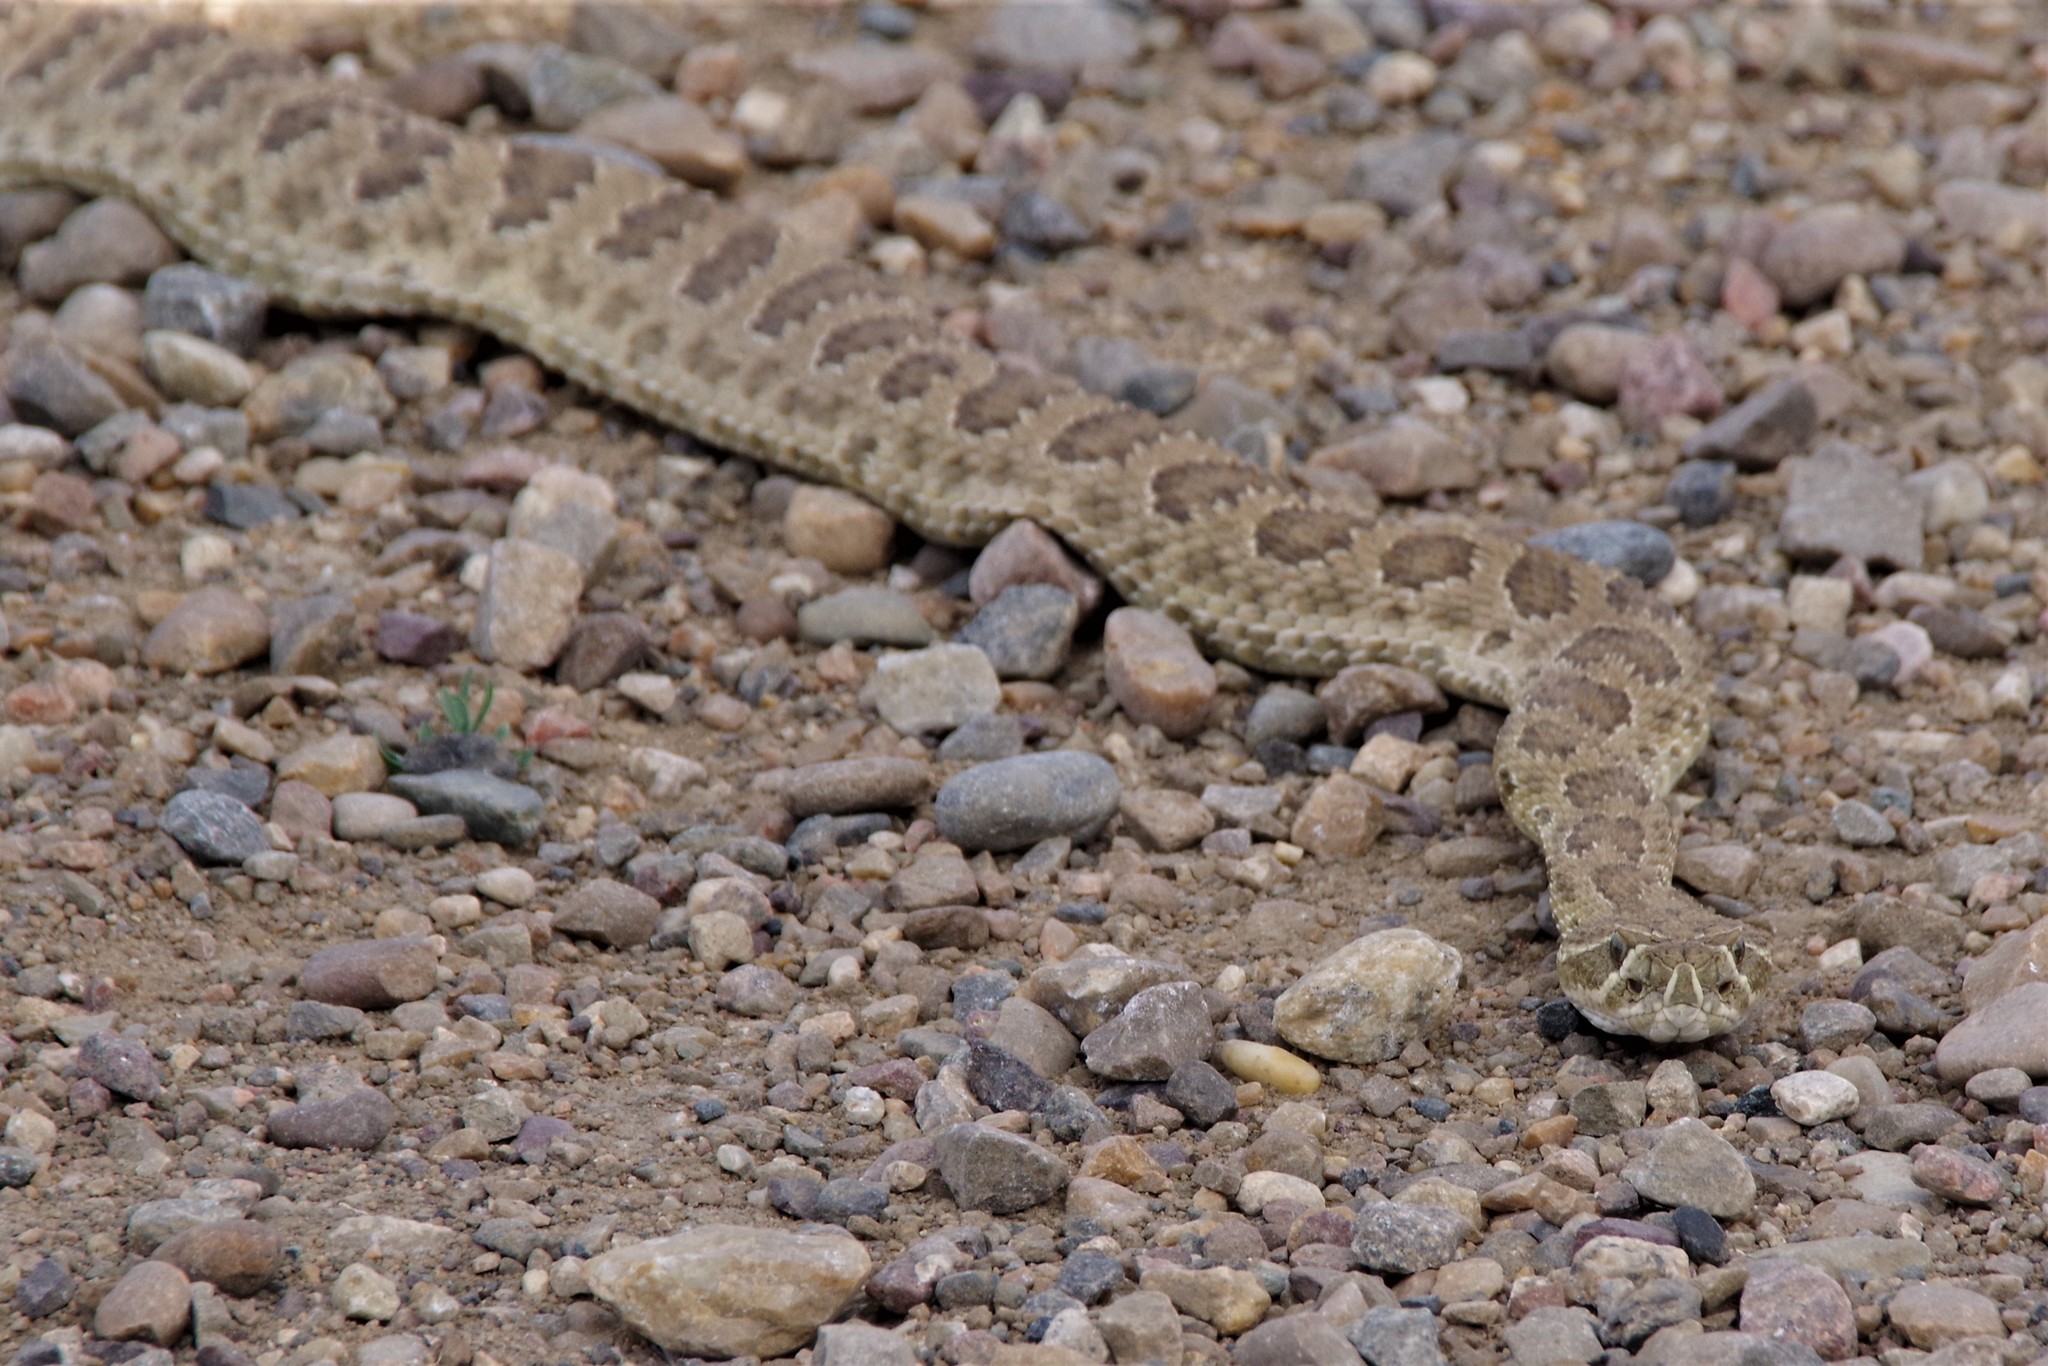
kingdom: Animalia
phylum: Chordata
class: Squamata
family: Viperidae
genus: Crotalus
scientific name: Crotalus viridis
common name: Prairie rattlesnake
